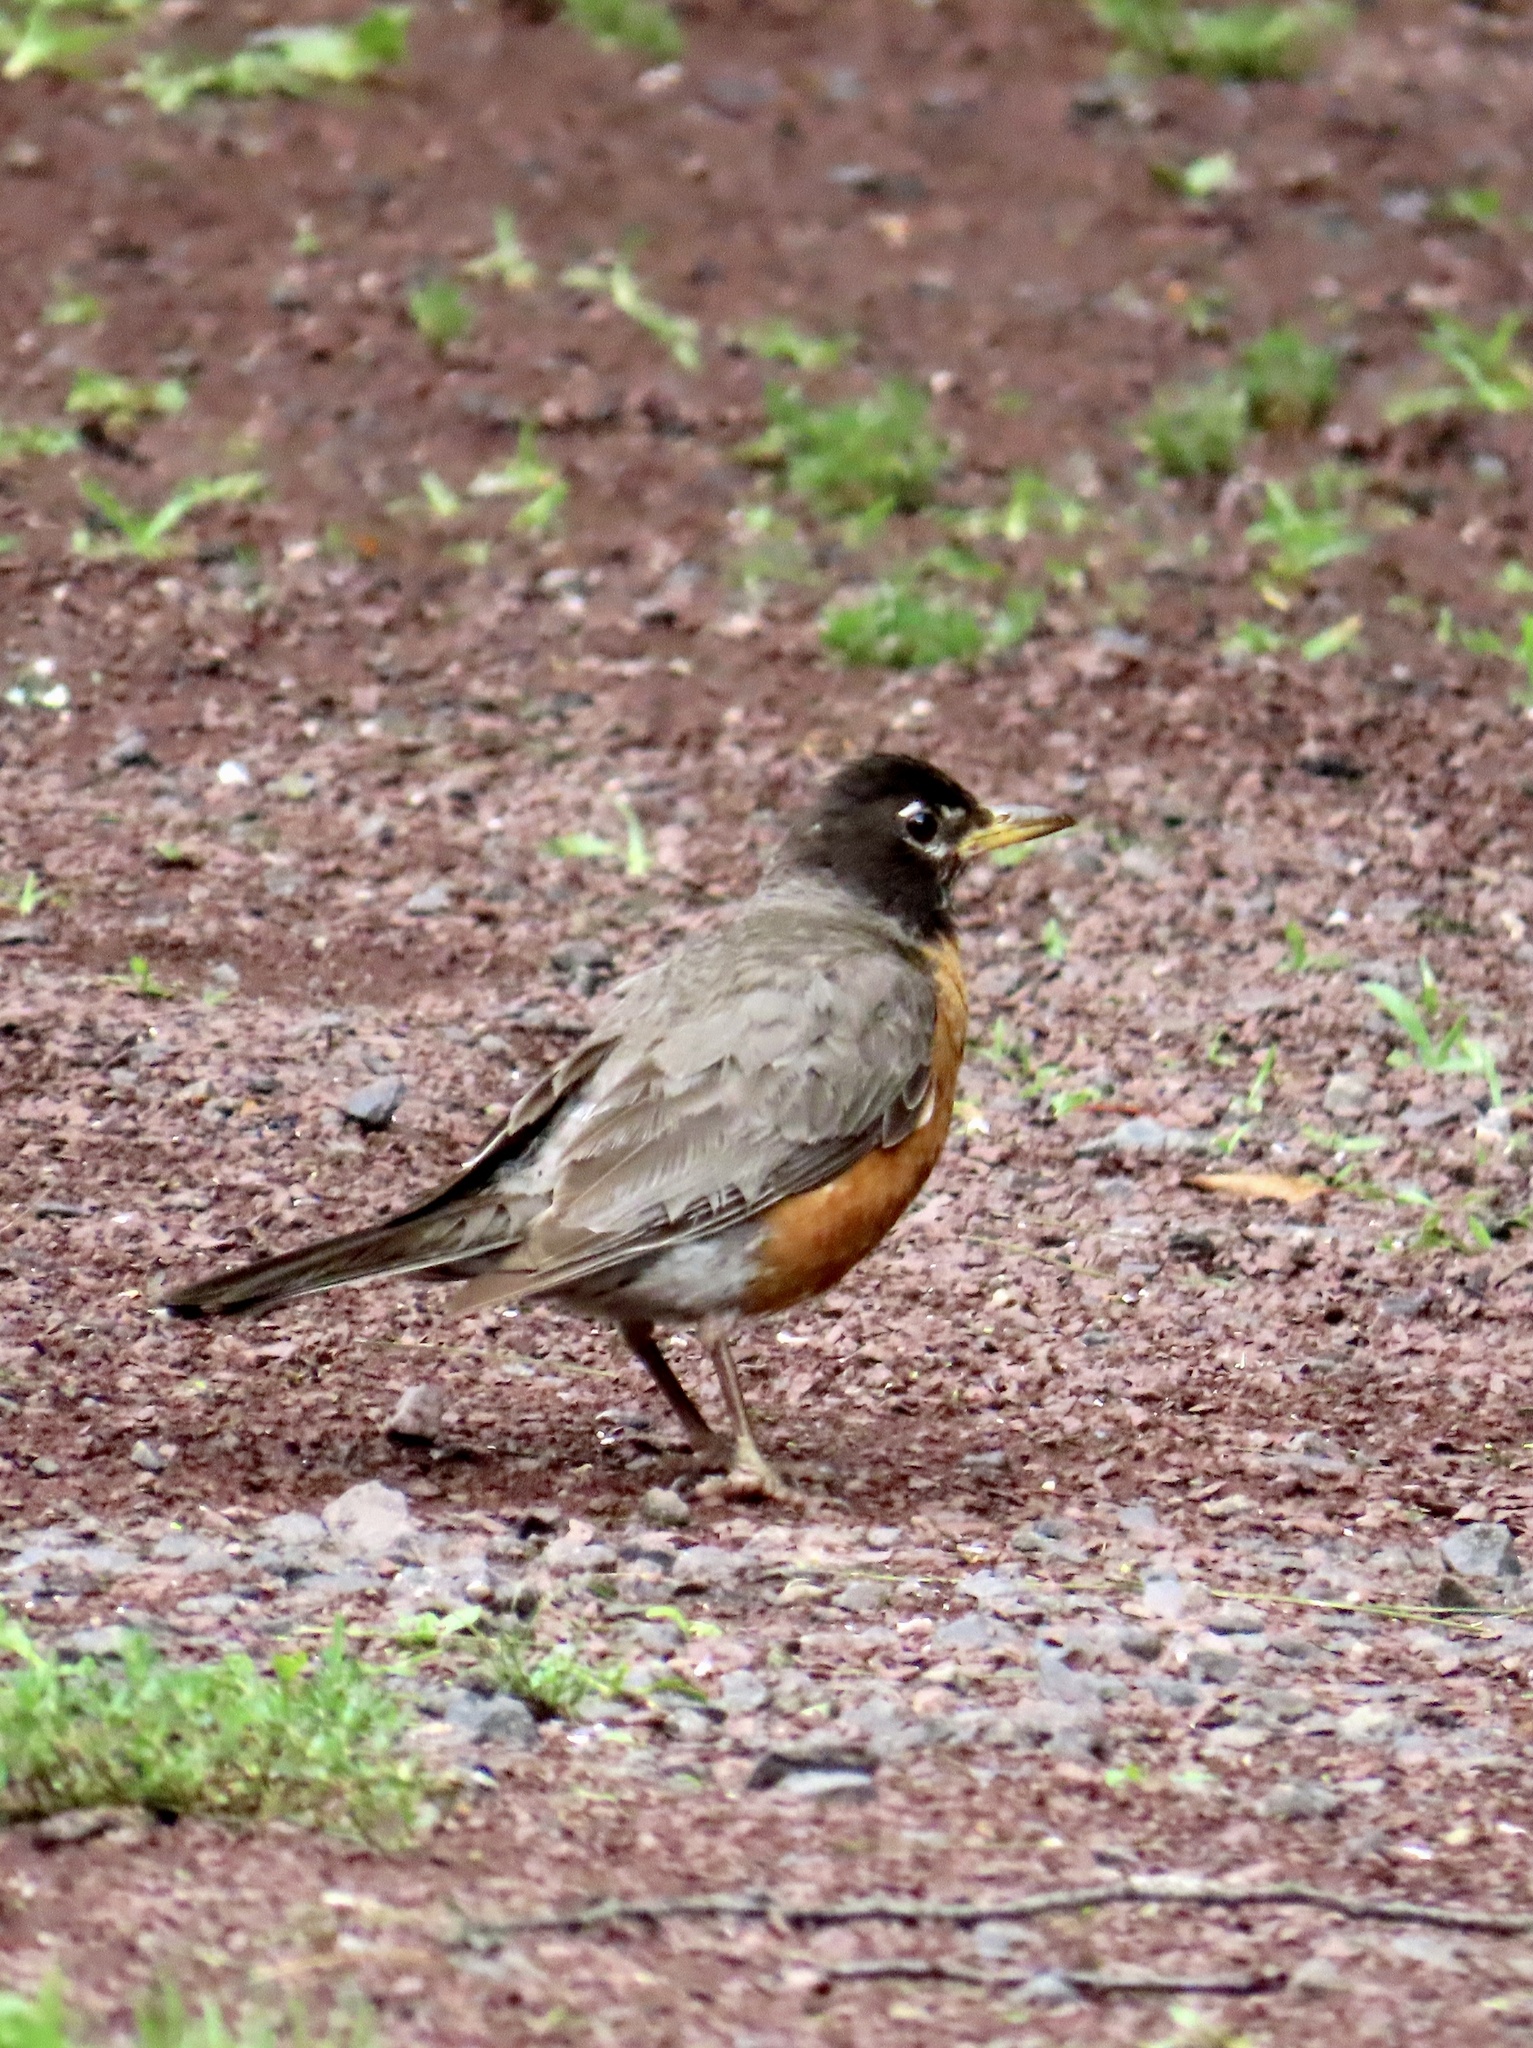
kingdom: Animalia
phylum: Chordata
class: Aves
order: Passeriformes
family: Turdidae
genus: Turdus
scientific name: Turdus migratorius
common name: American robin
